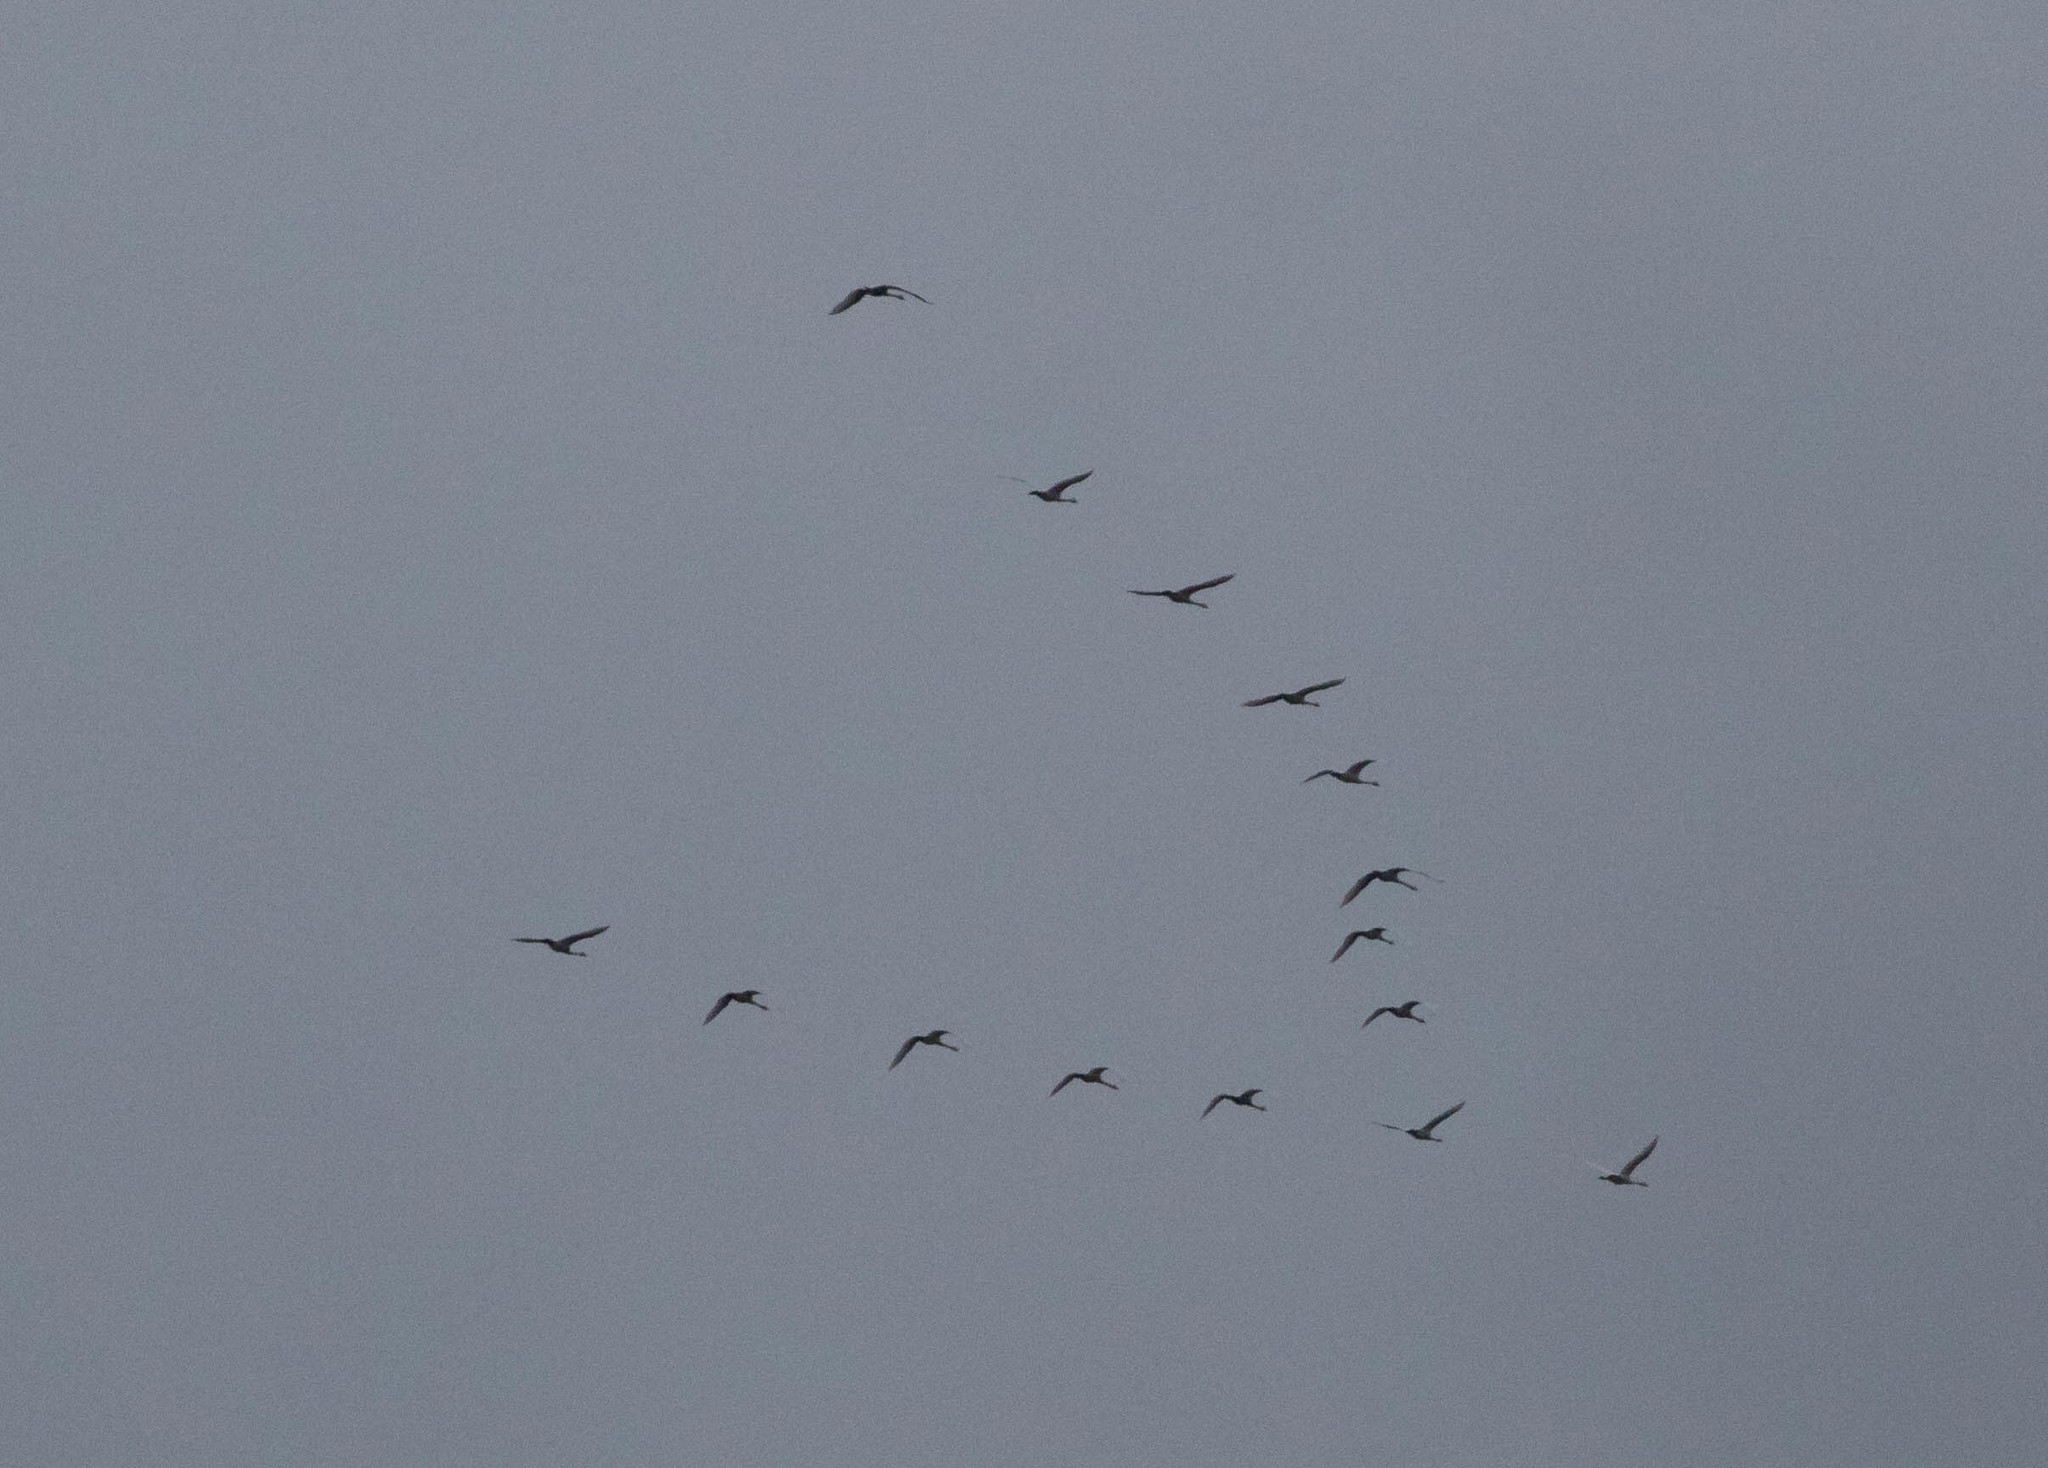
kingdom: Animalia
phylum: Chordata
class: Aves
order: Anseriformes
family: Anatidae
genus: Cygnus
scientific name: Cygnus columbianus
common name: Tundra swan
